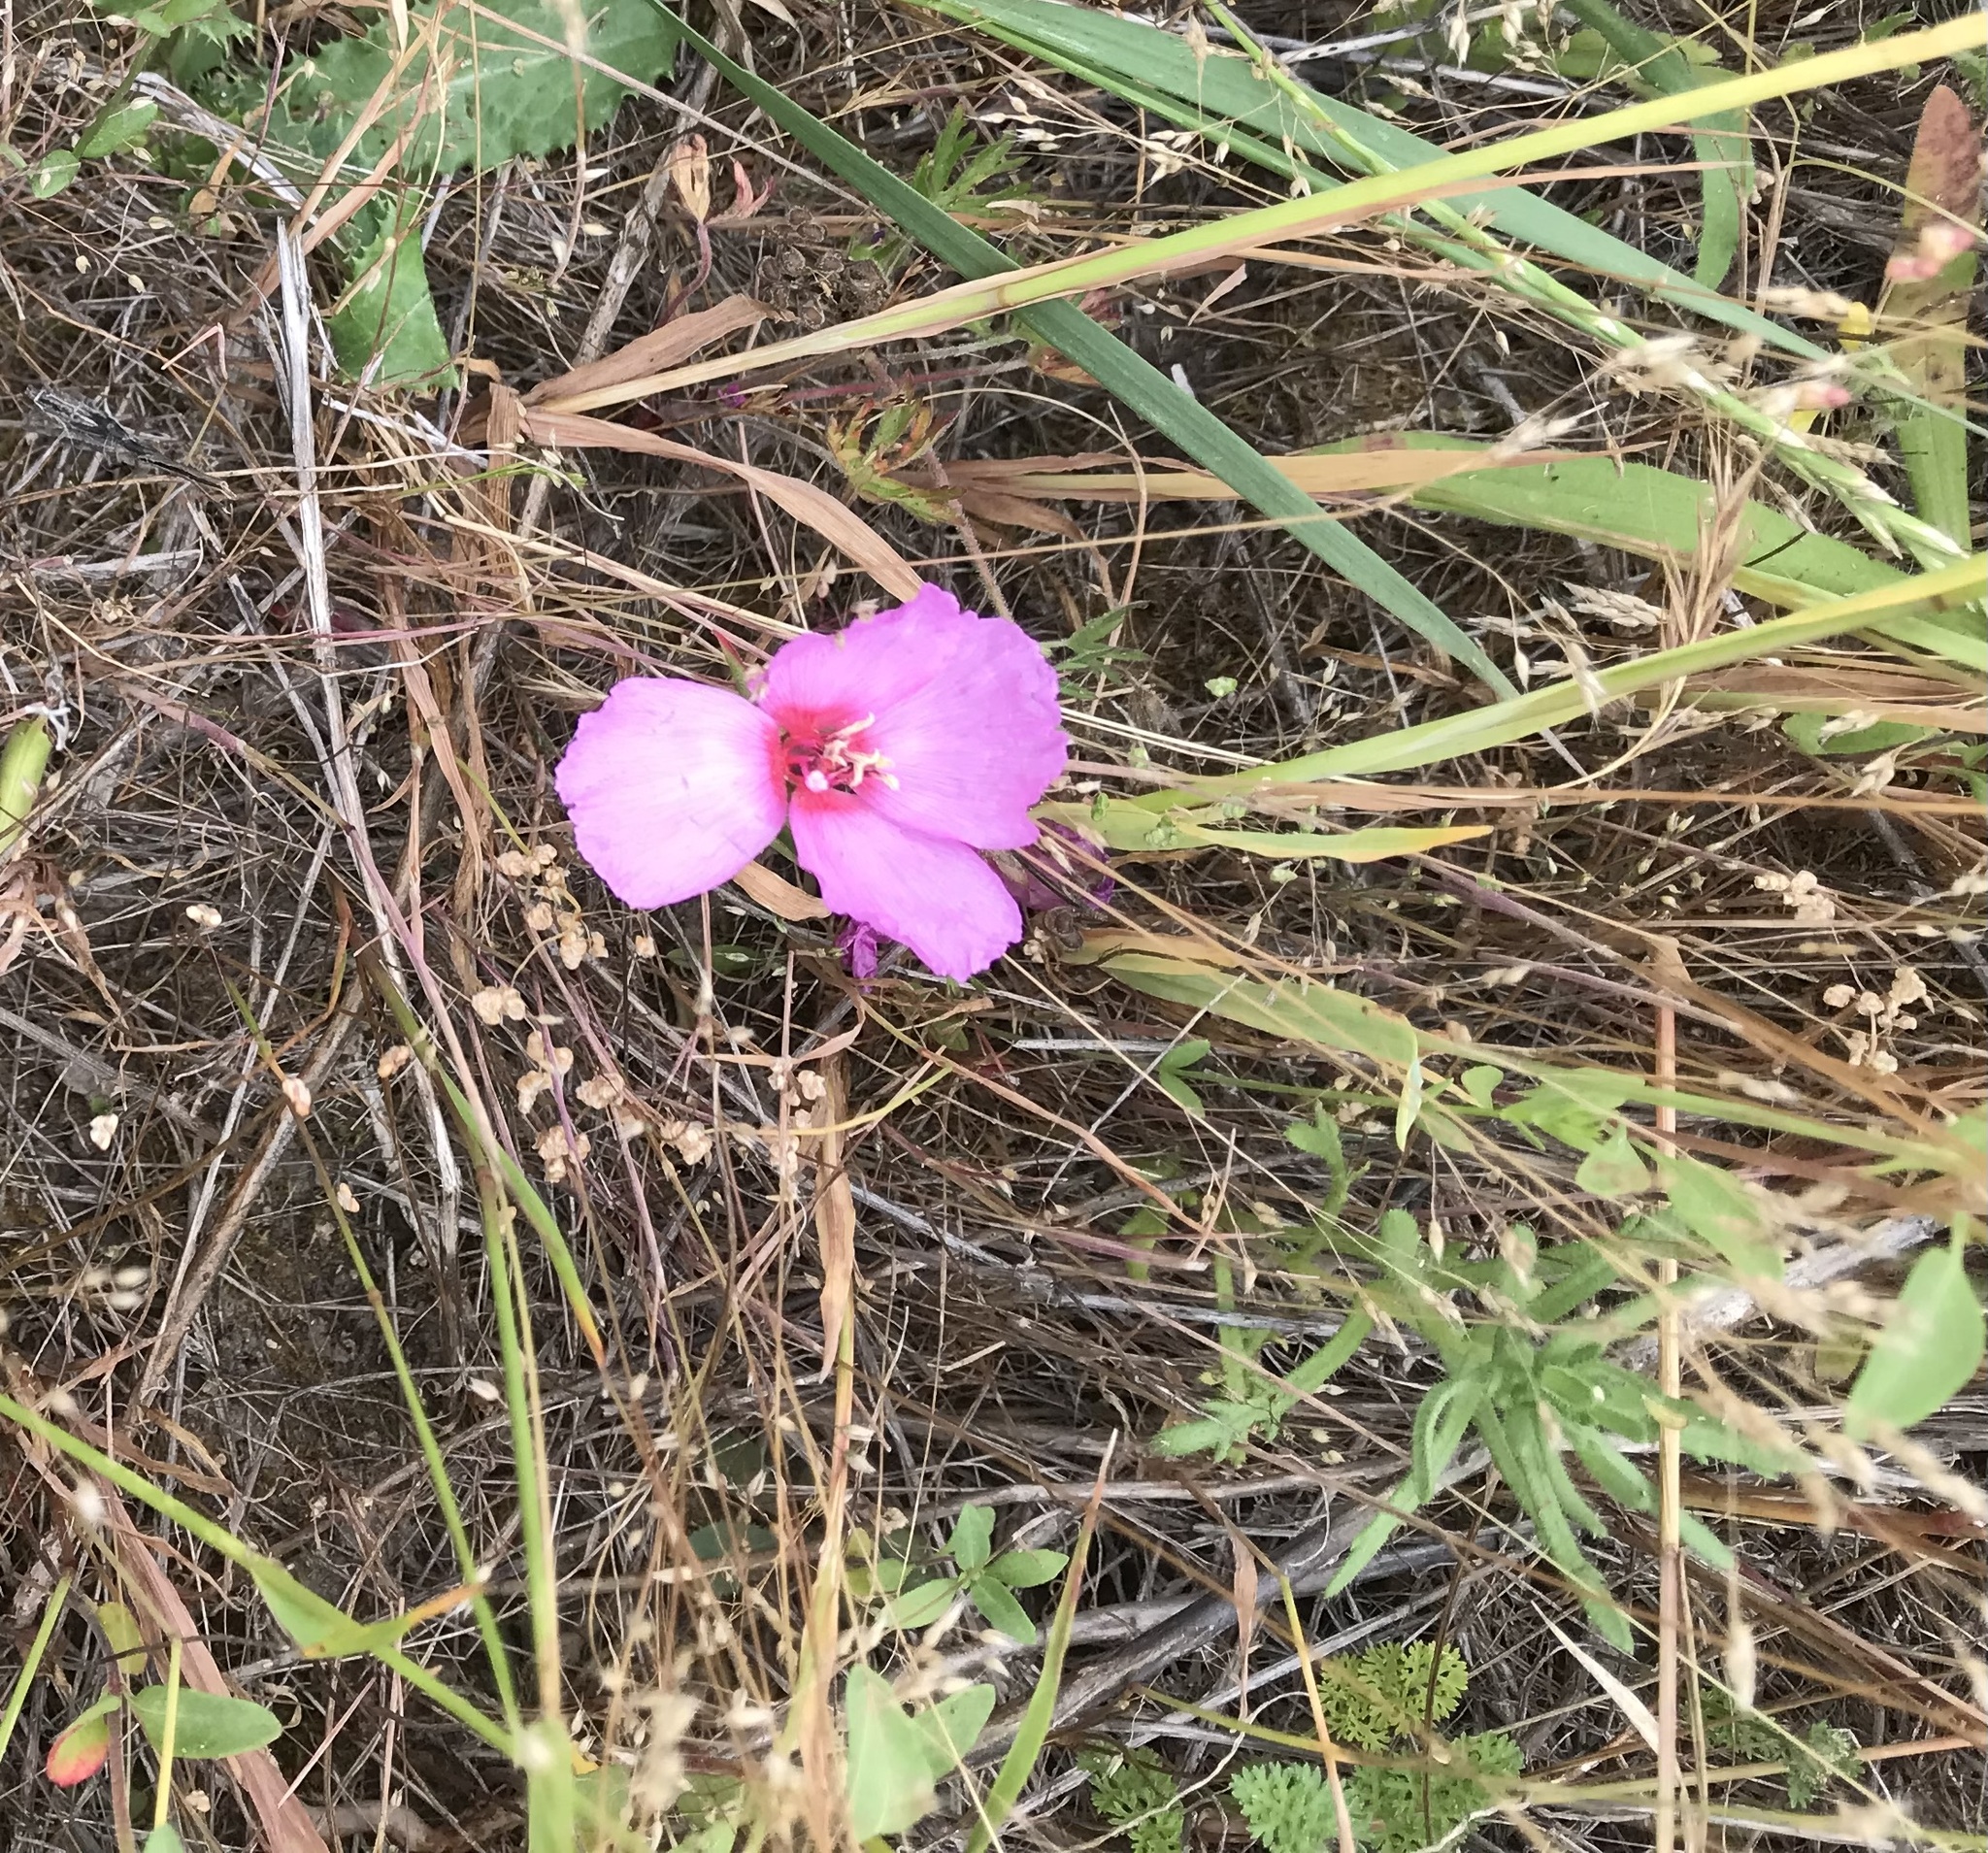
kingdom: Plantae
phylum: Tracheophyta
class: Magnoliopsida
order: Myrtales
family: Onagraceae
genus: Clarkia
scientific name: Clarkia rubicunda
